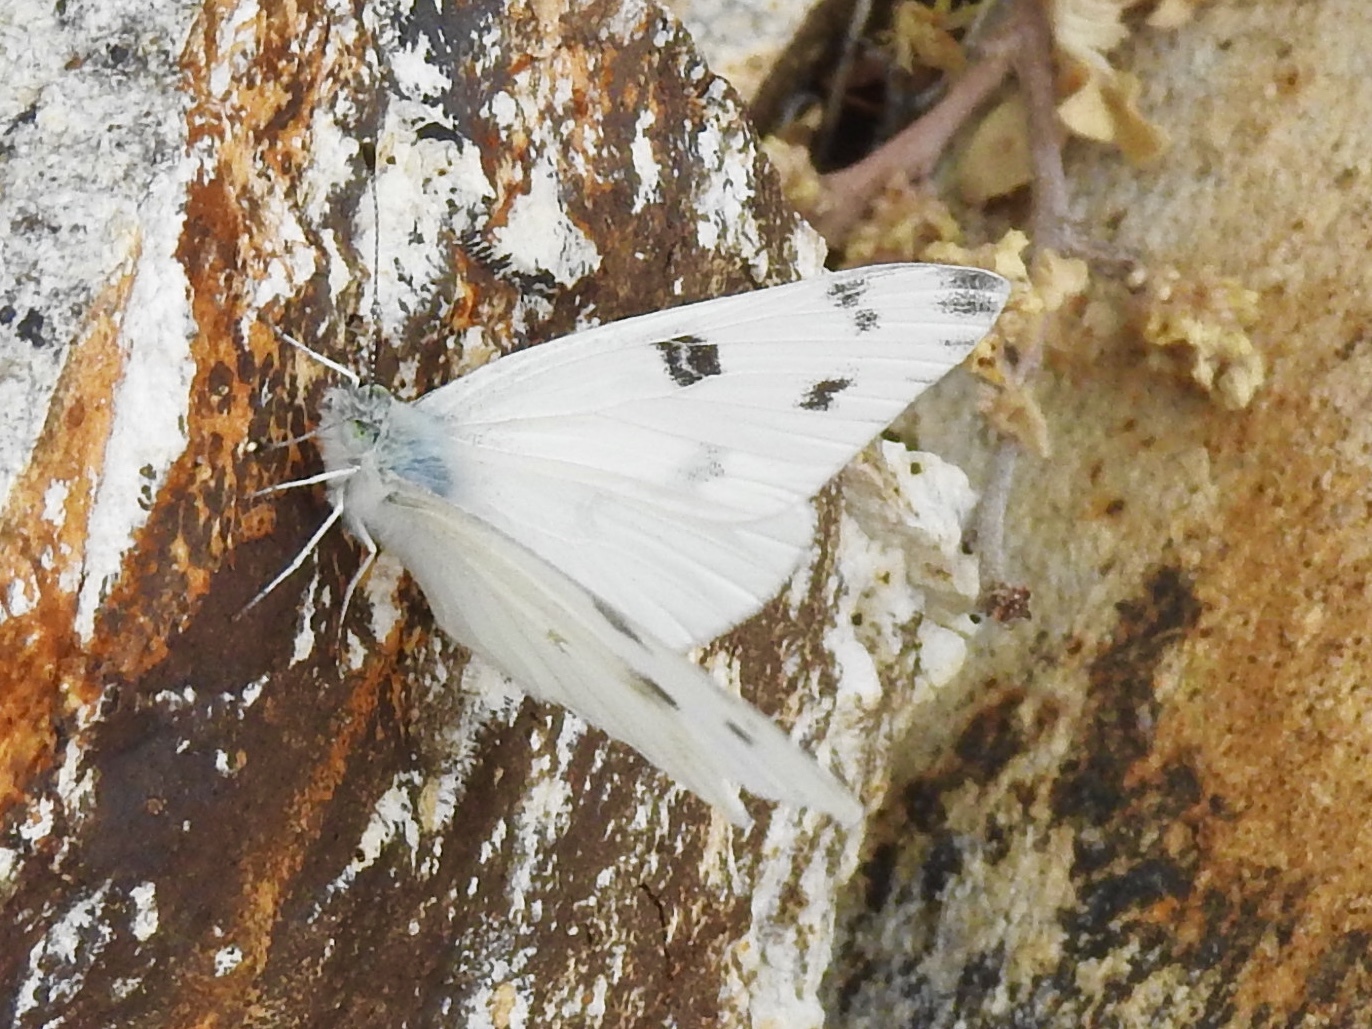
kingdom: Animalia
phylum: Arthropoda
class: Insecta
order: Lepidoptera
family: Pieridae
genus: Pontia
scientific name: Pontia protodice
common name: Checkered white
